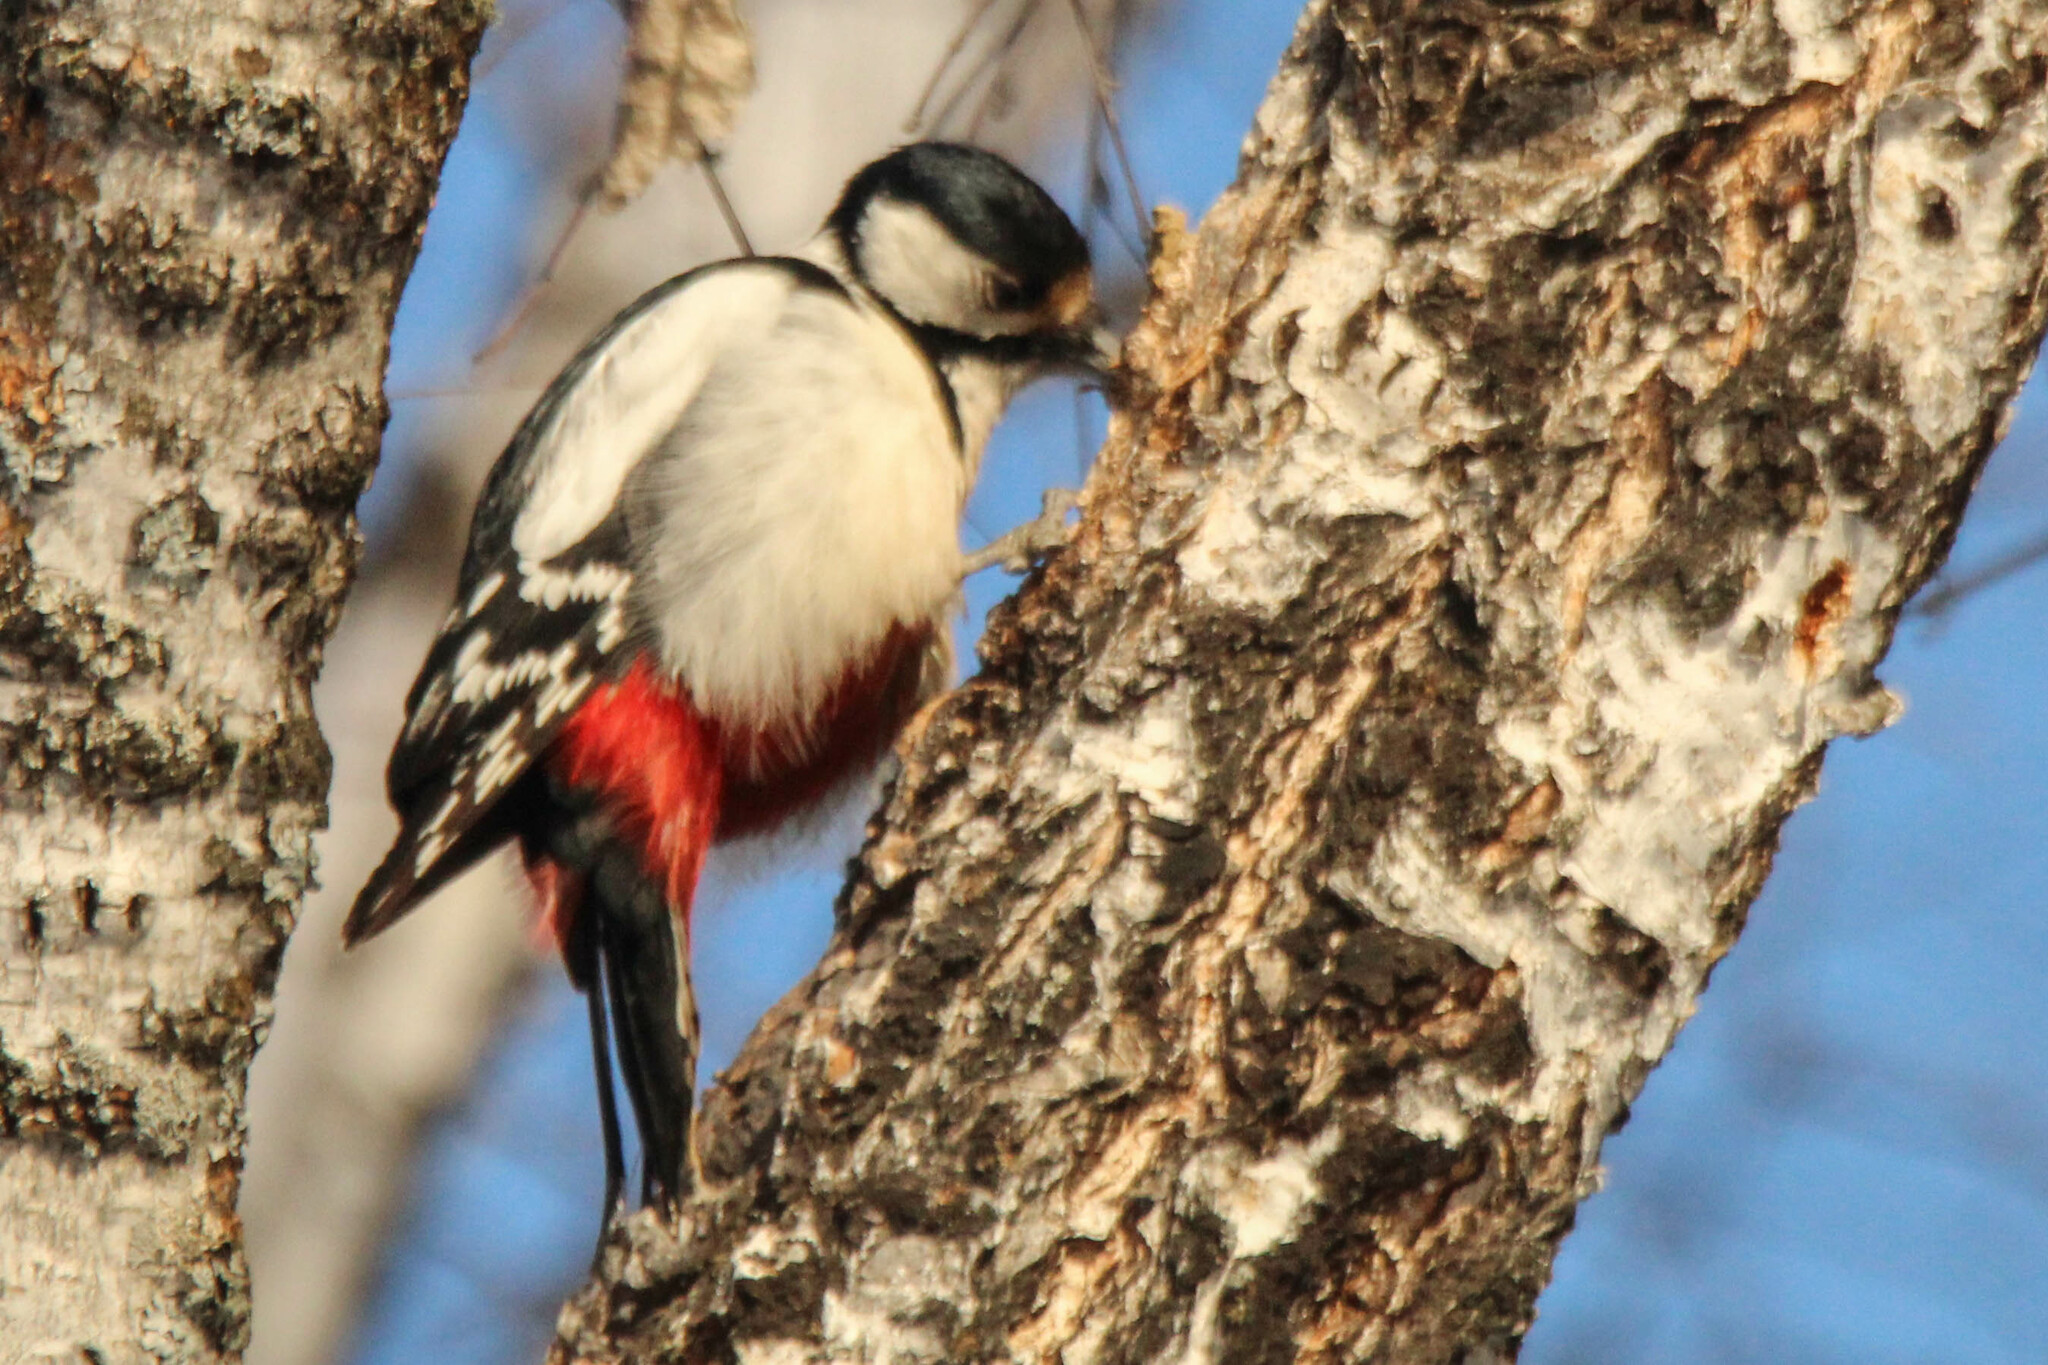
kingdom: Animalia
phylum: Chordata
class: Aves
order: Piciformes
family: Picidae
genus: Dendrocopos
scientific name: Dendrocopos major
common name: Great spotted woodpecker
